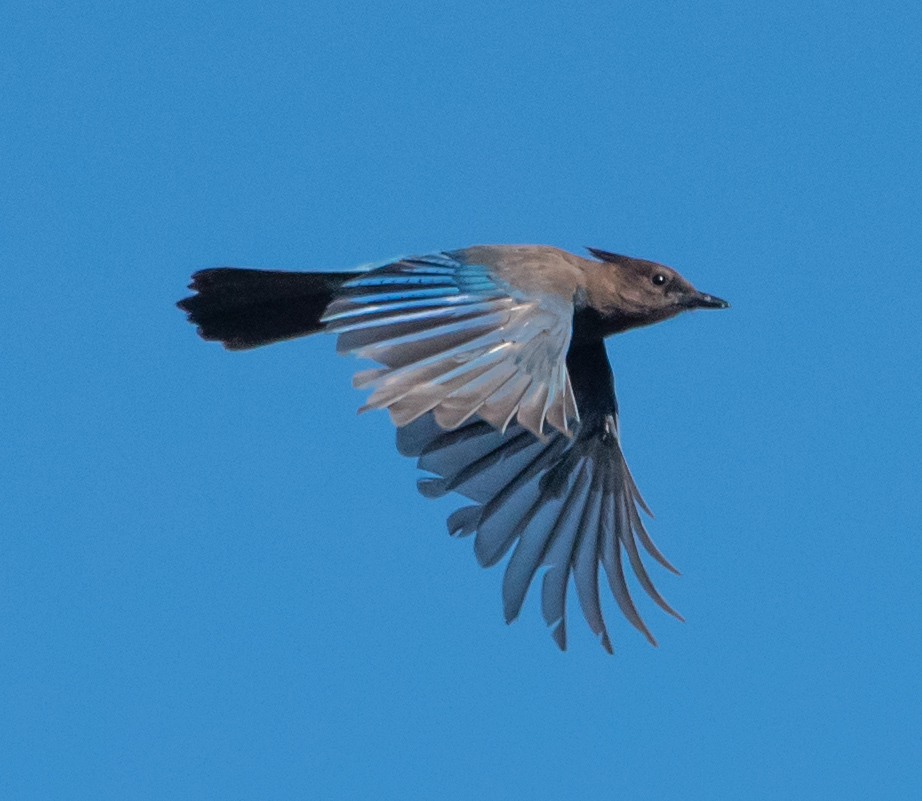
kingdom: Animalia
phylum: Chordata
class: Aves
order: Passeriformes
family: Corvidae
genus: Cyanocitta
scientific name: Cyanocitta stelleri
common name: Steller's jay
